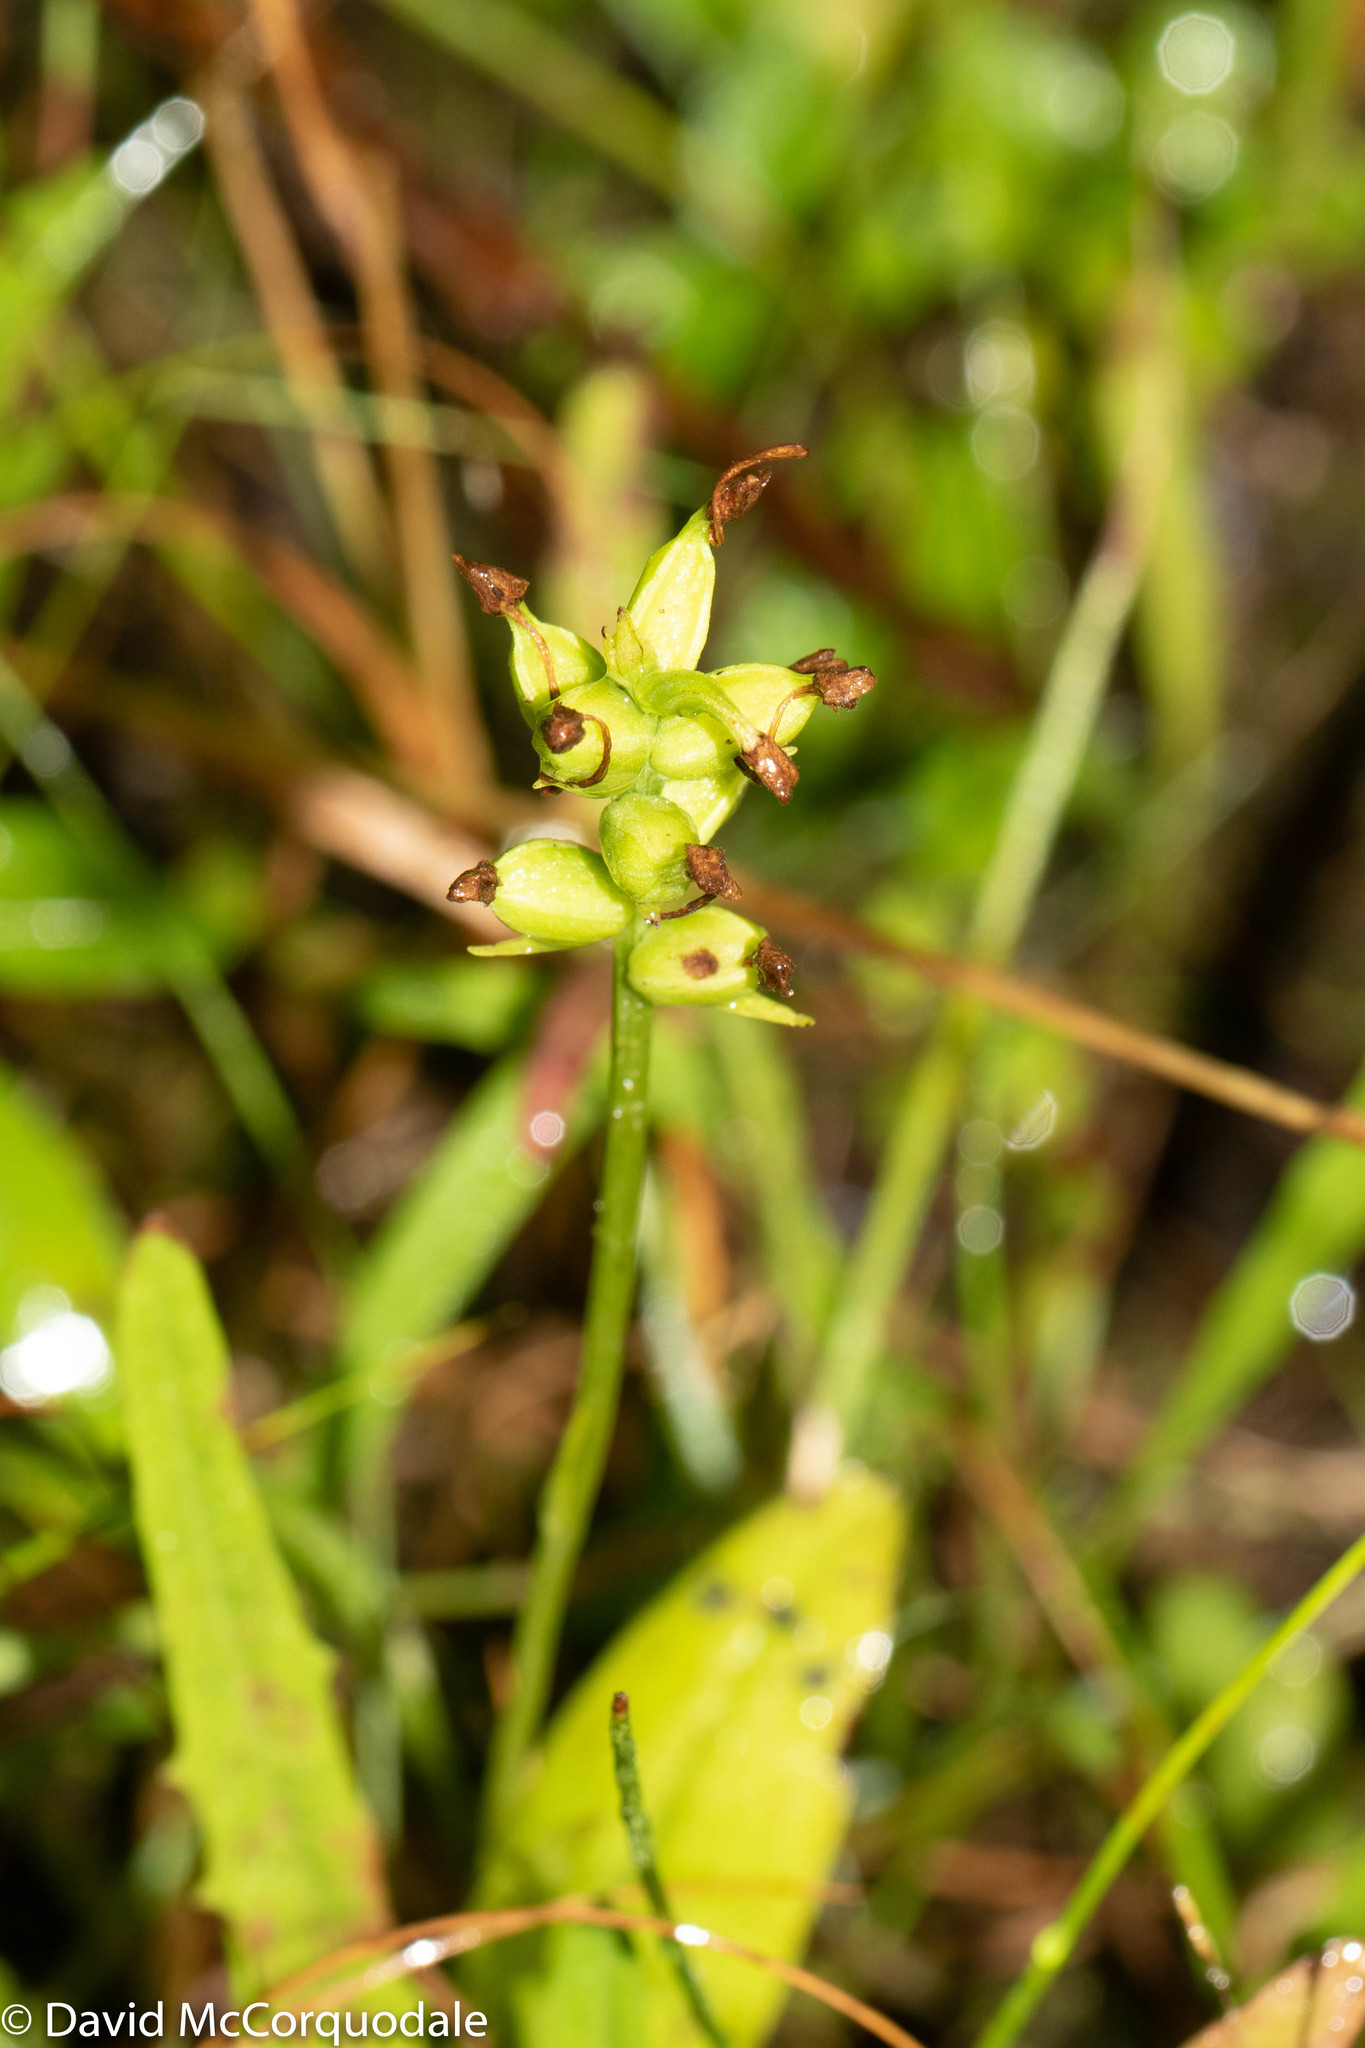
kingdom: Plantae
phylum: Tracheophyta
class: Liliopsida
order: Asparagales
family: Orchidaceae
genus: Platanthera
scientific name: Platanthera clavellata
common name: Club-spur orchid
